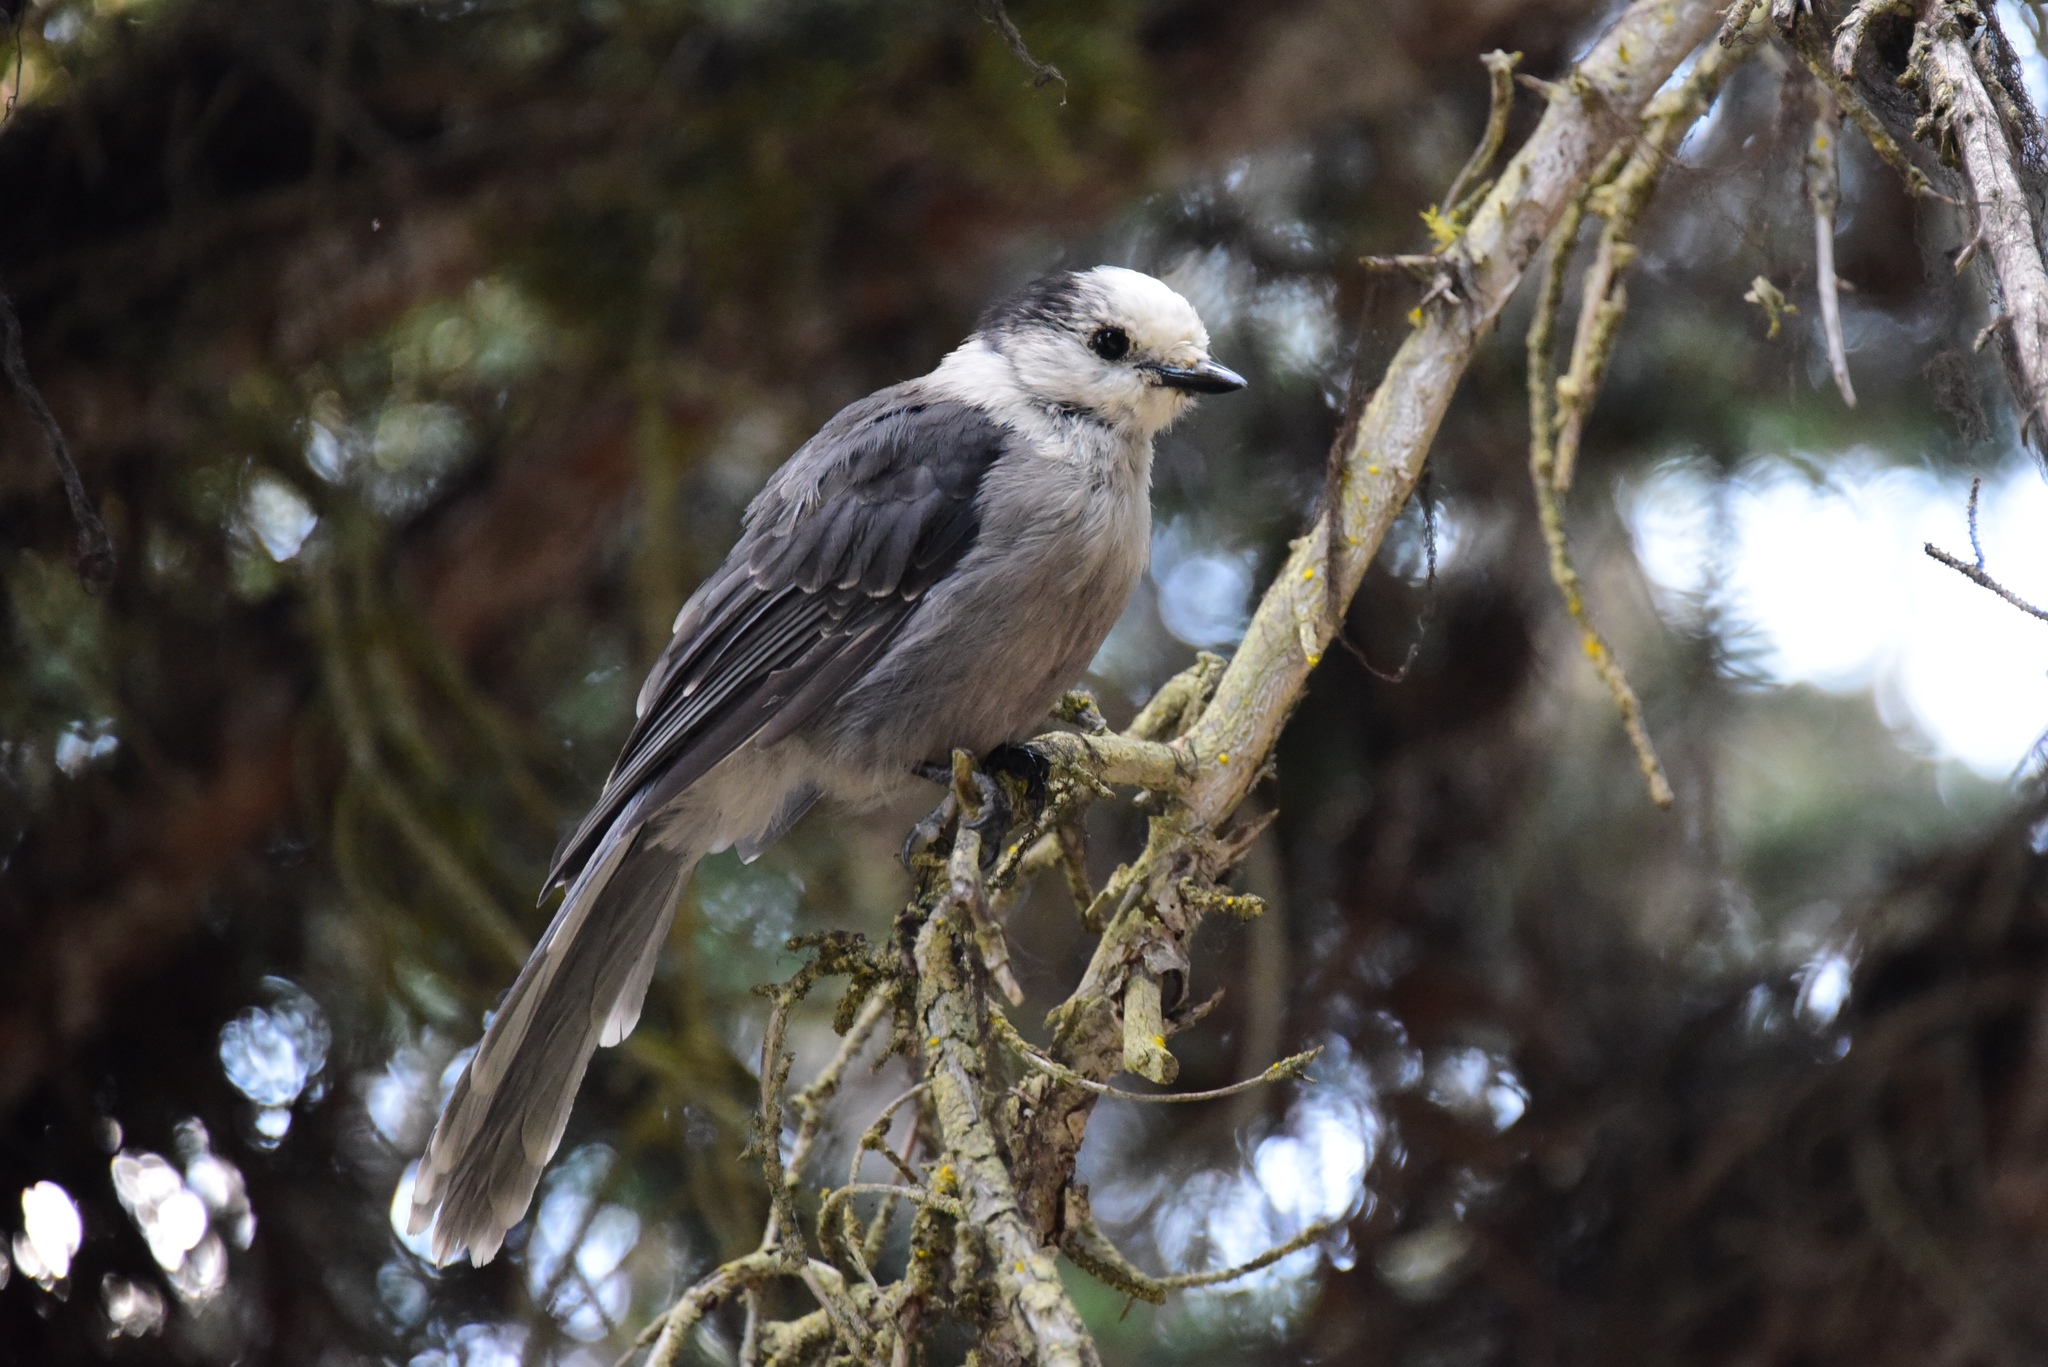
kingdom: Animalia
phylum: Chordata
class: Aves
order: Passeriformes
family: Corvidae
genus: Perisoreus
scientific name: Perisoreus canadensis
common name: Gray jay
